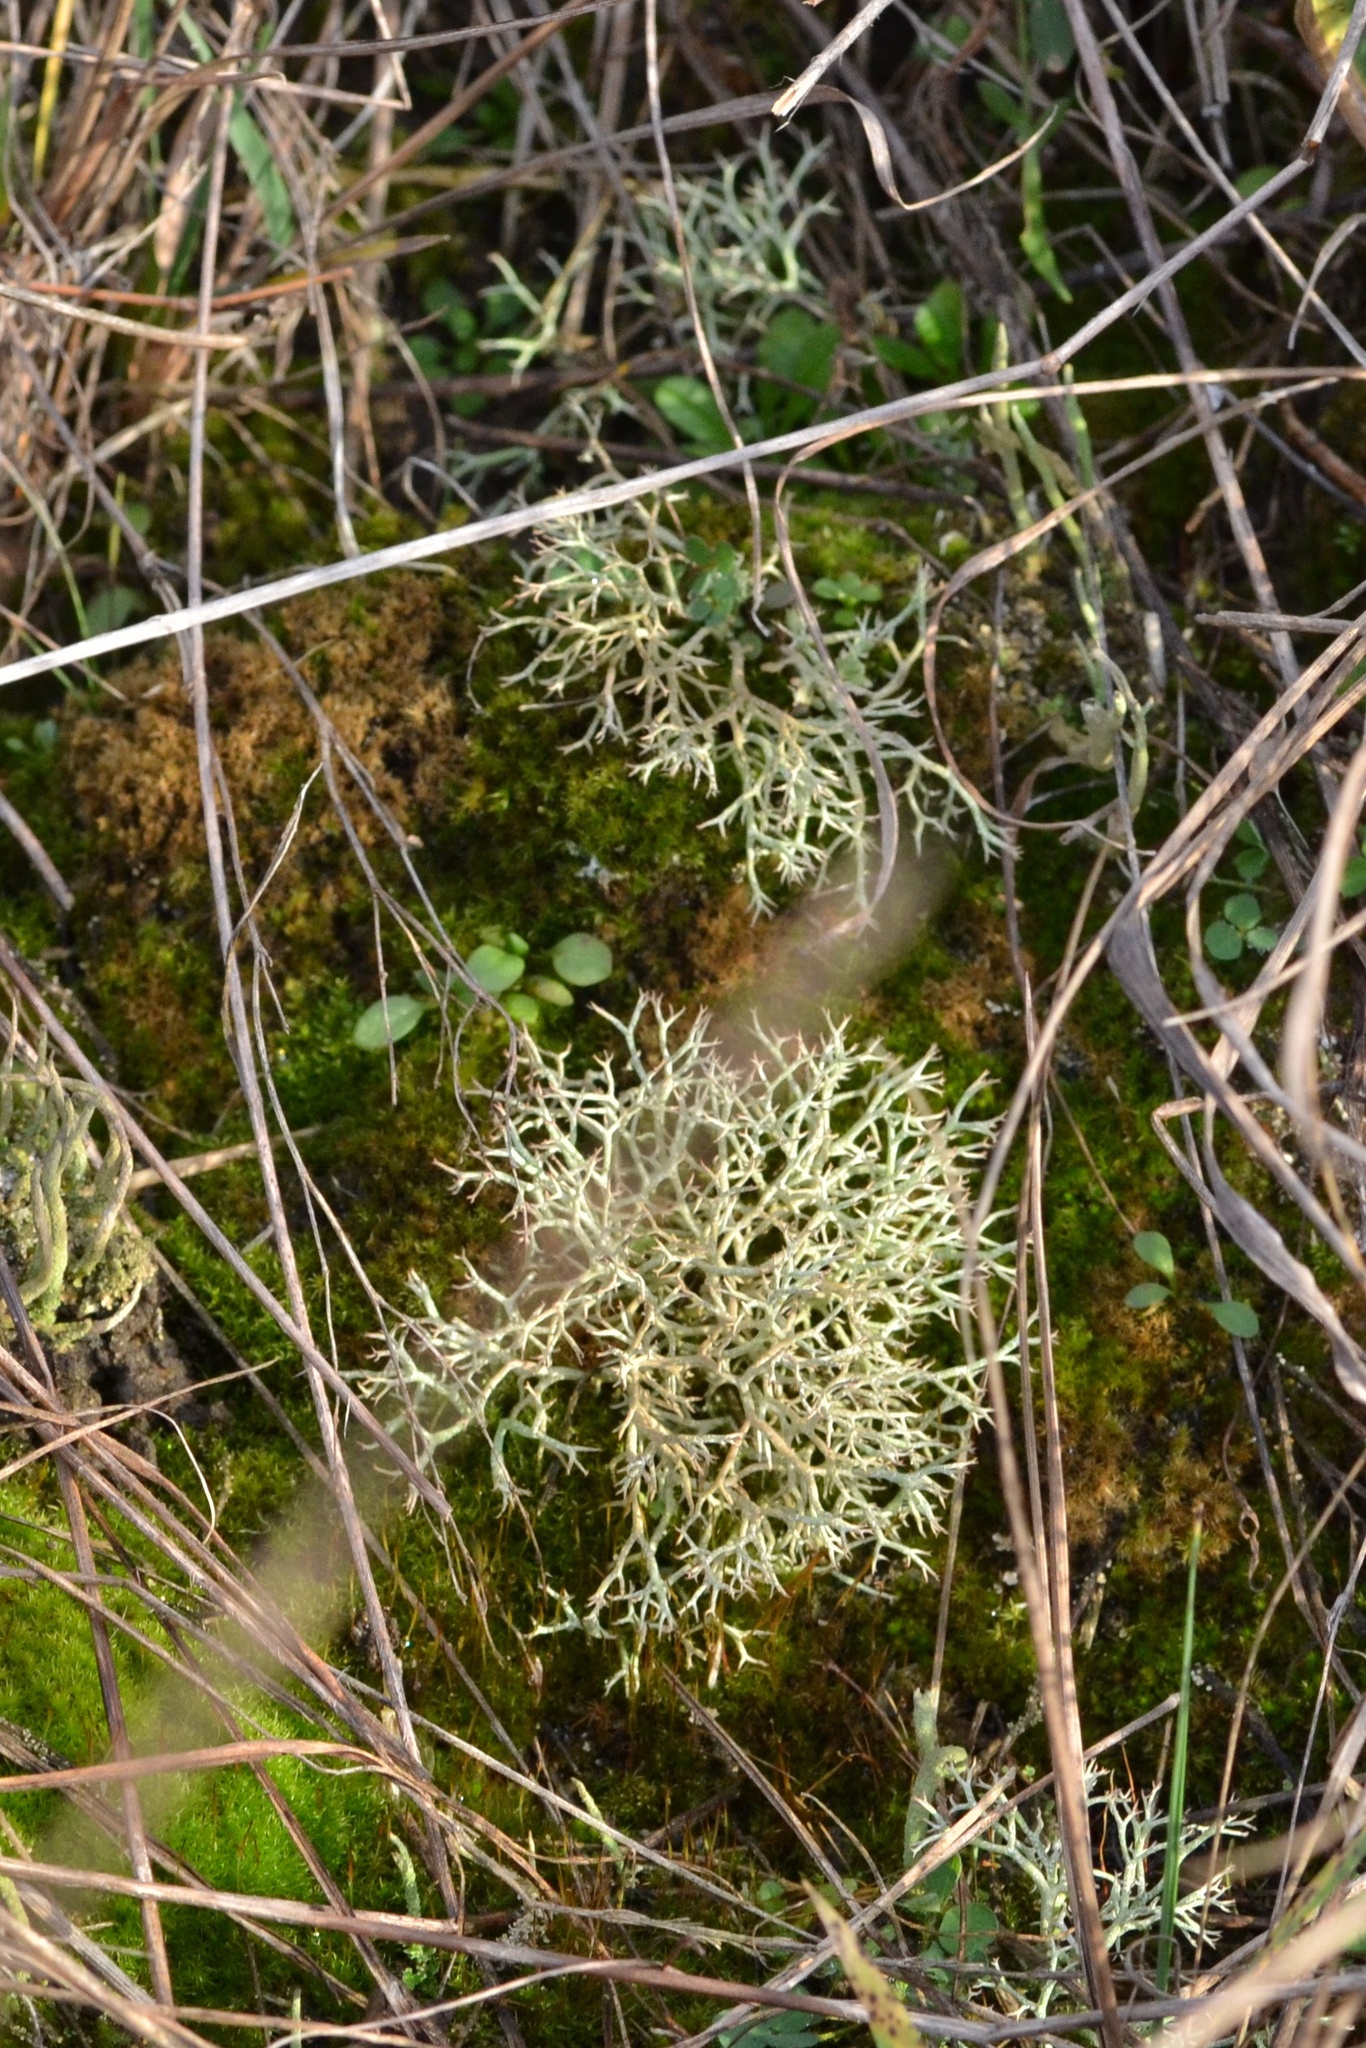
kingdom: Fungi
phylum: Ascomycota
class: Lecanoromycetes
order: Lecanorales
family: Cladoniaceae
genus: Cladonia
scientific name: Cladonia rangiformis
